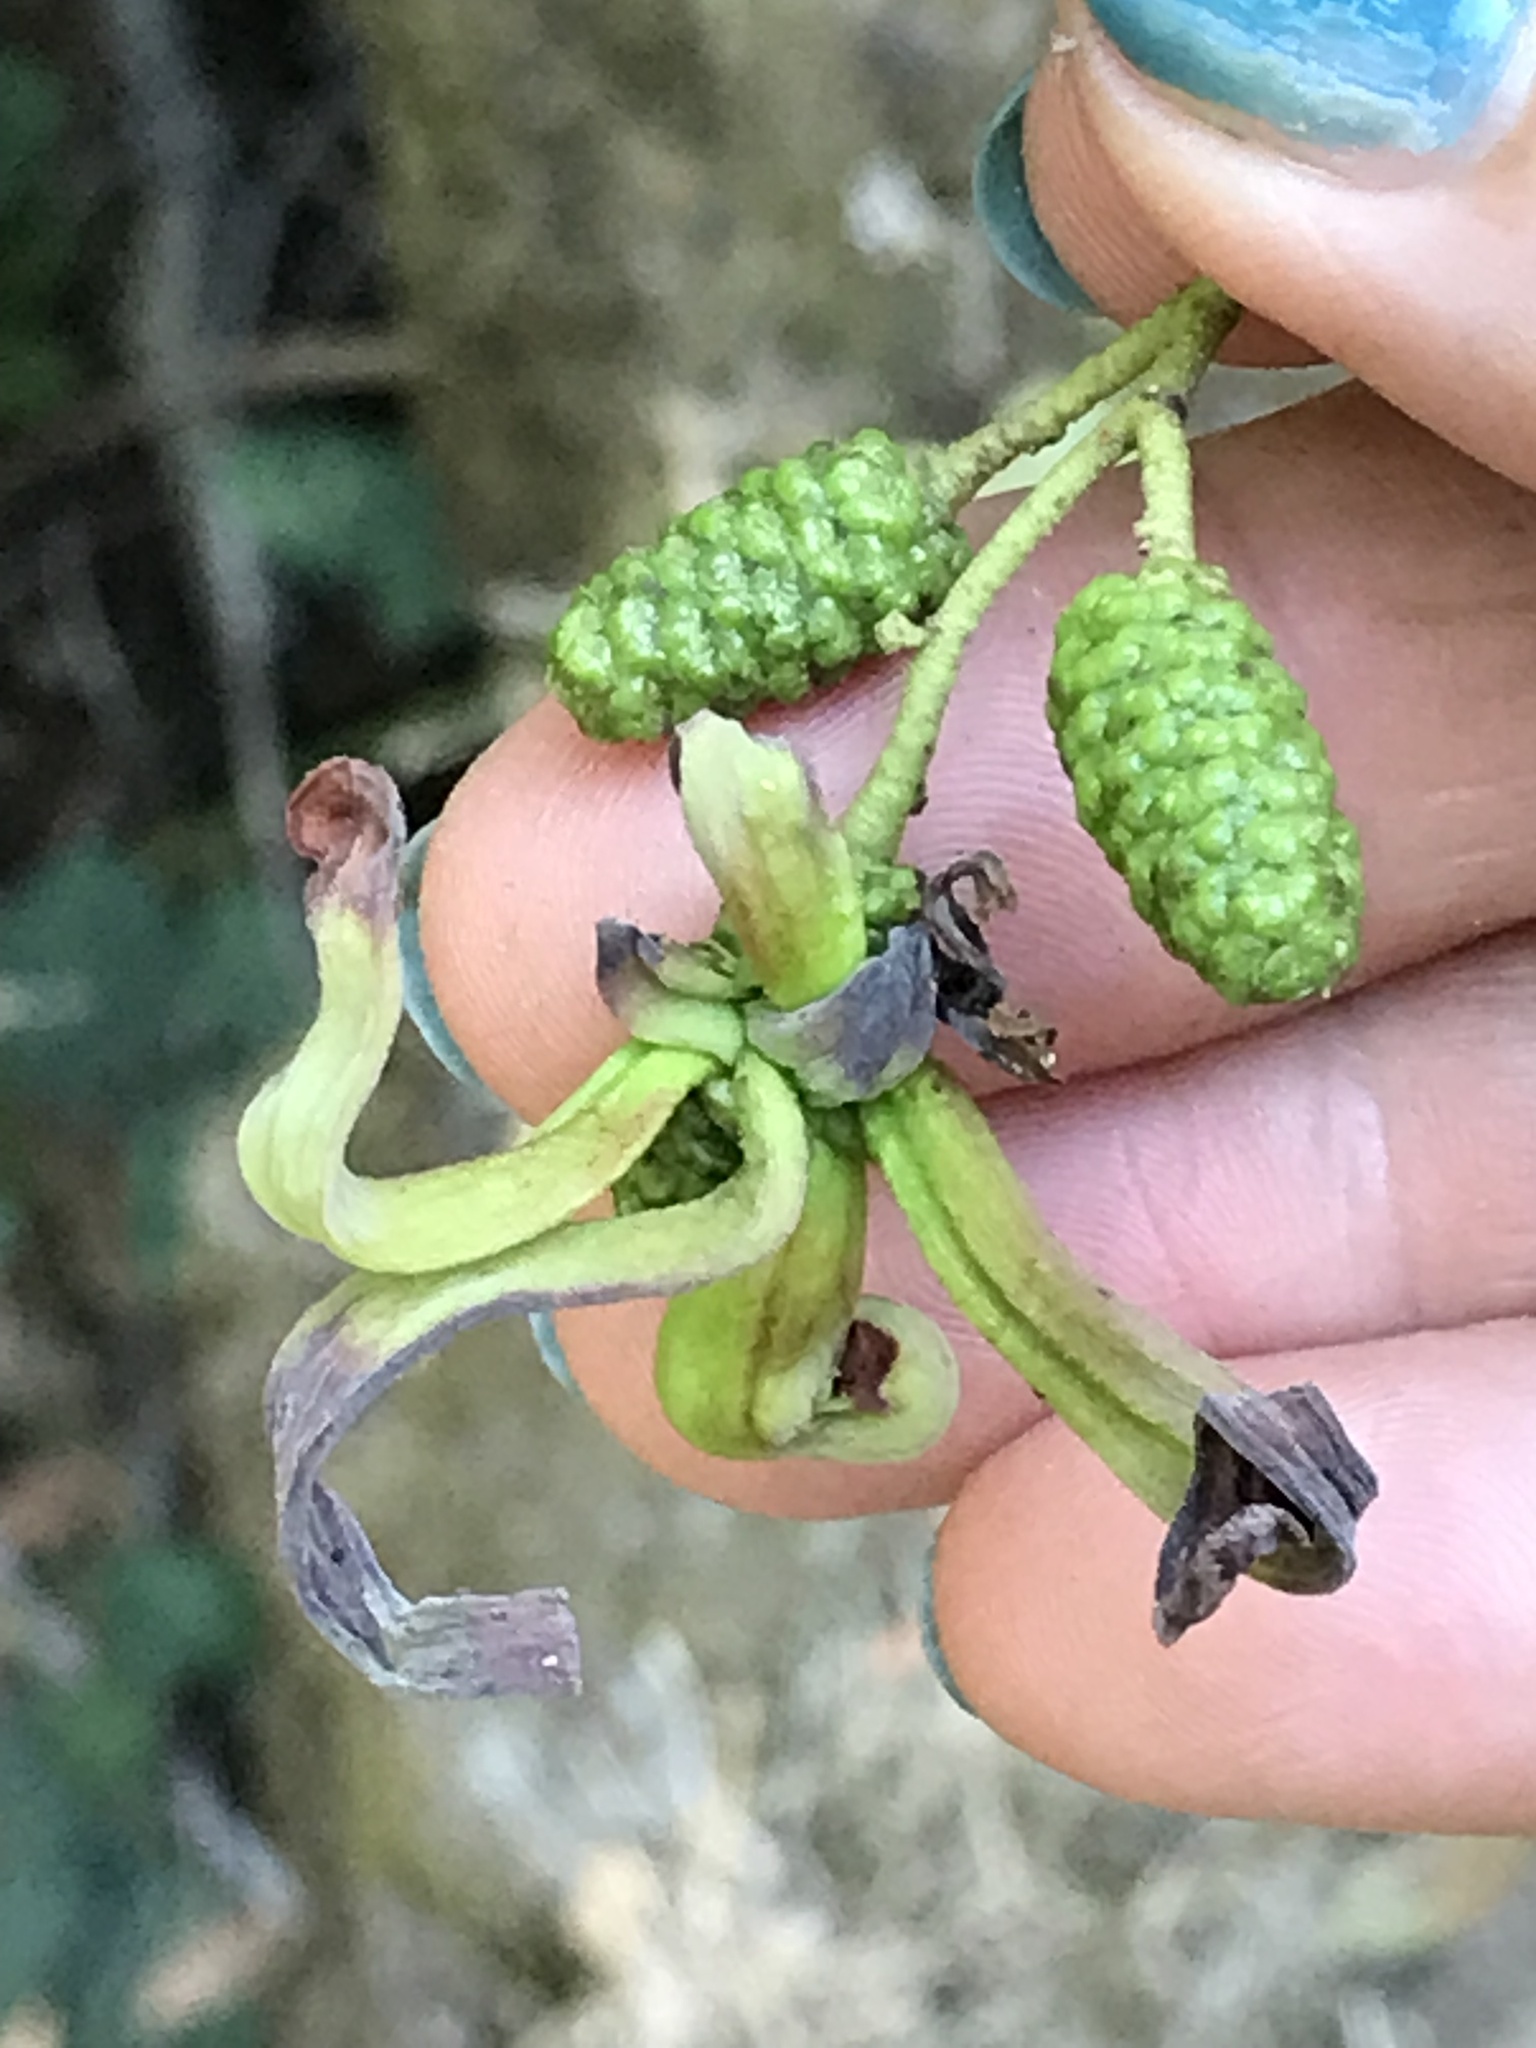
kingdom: Fungi
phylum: Ascomycota
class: Taphrinomycetes
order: Taphrinales
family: Taphrinaceae
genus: Taphrina
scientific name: Taphrina occidentalis
